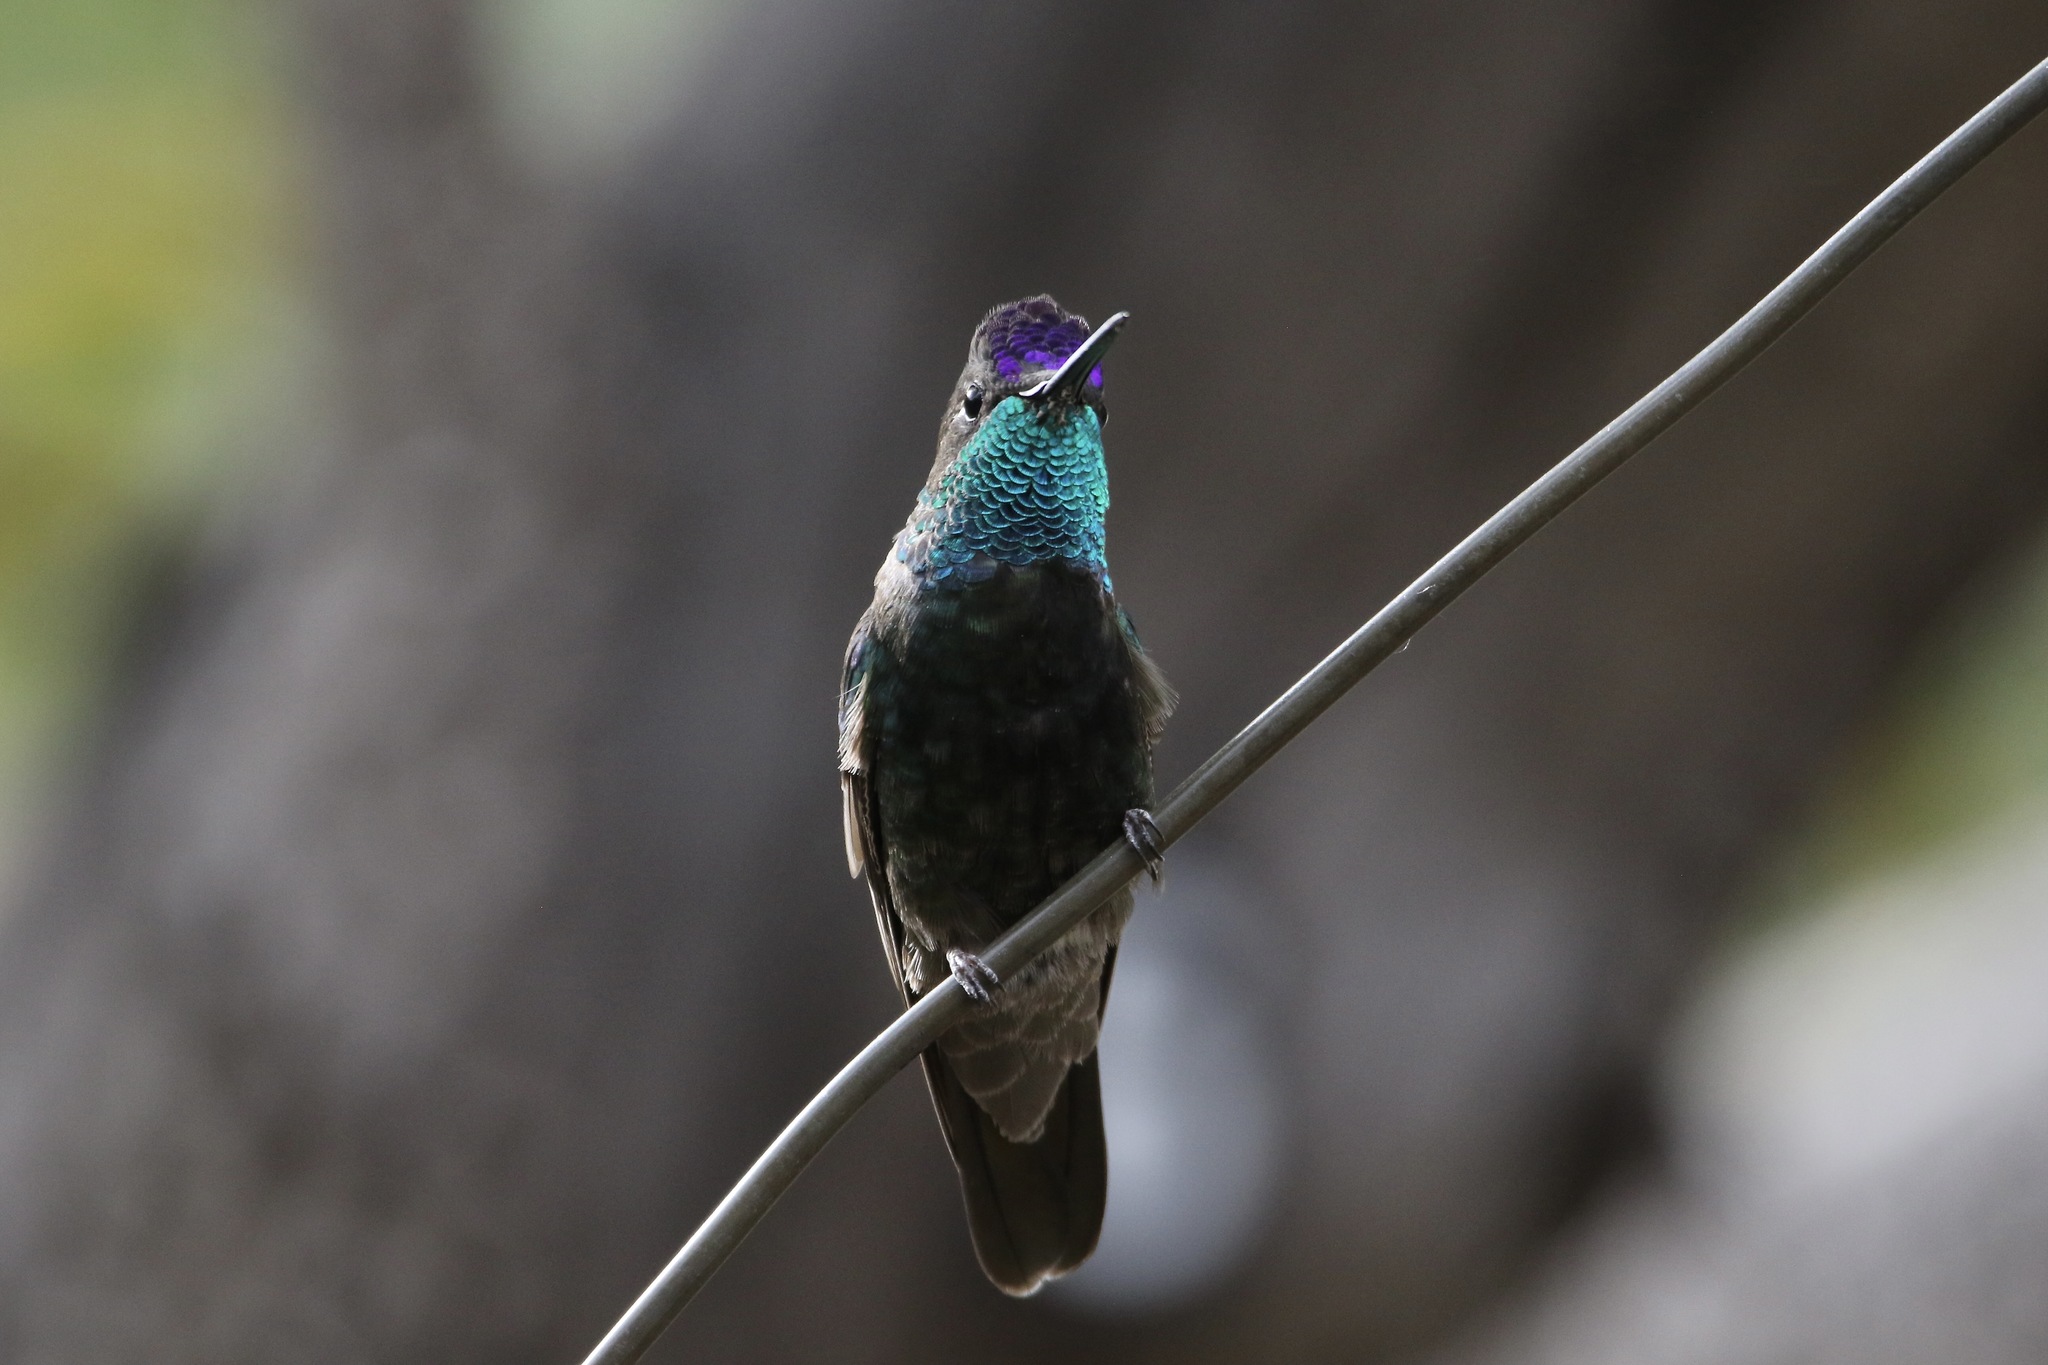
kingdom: Animalia
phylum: Chordata
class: Aves
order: Apodiformes
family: Trochilidae
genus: Eugenes
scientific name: Eugenes fulgens
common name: Magnificent hummingbird
